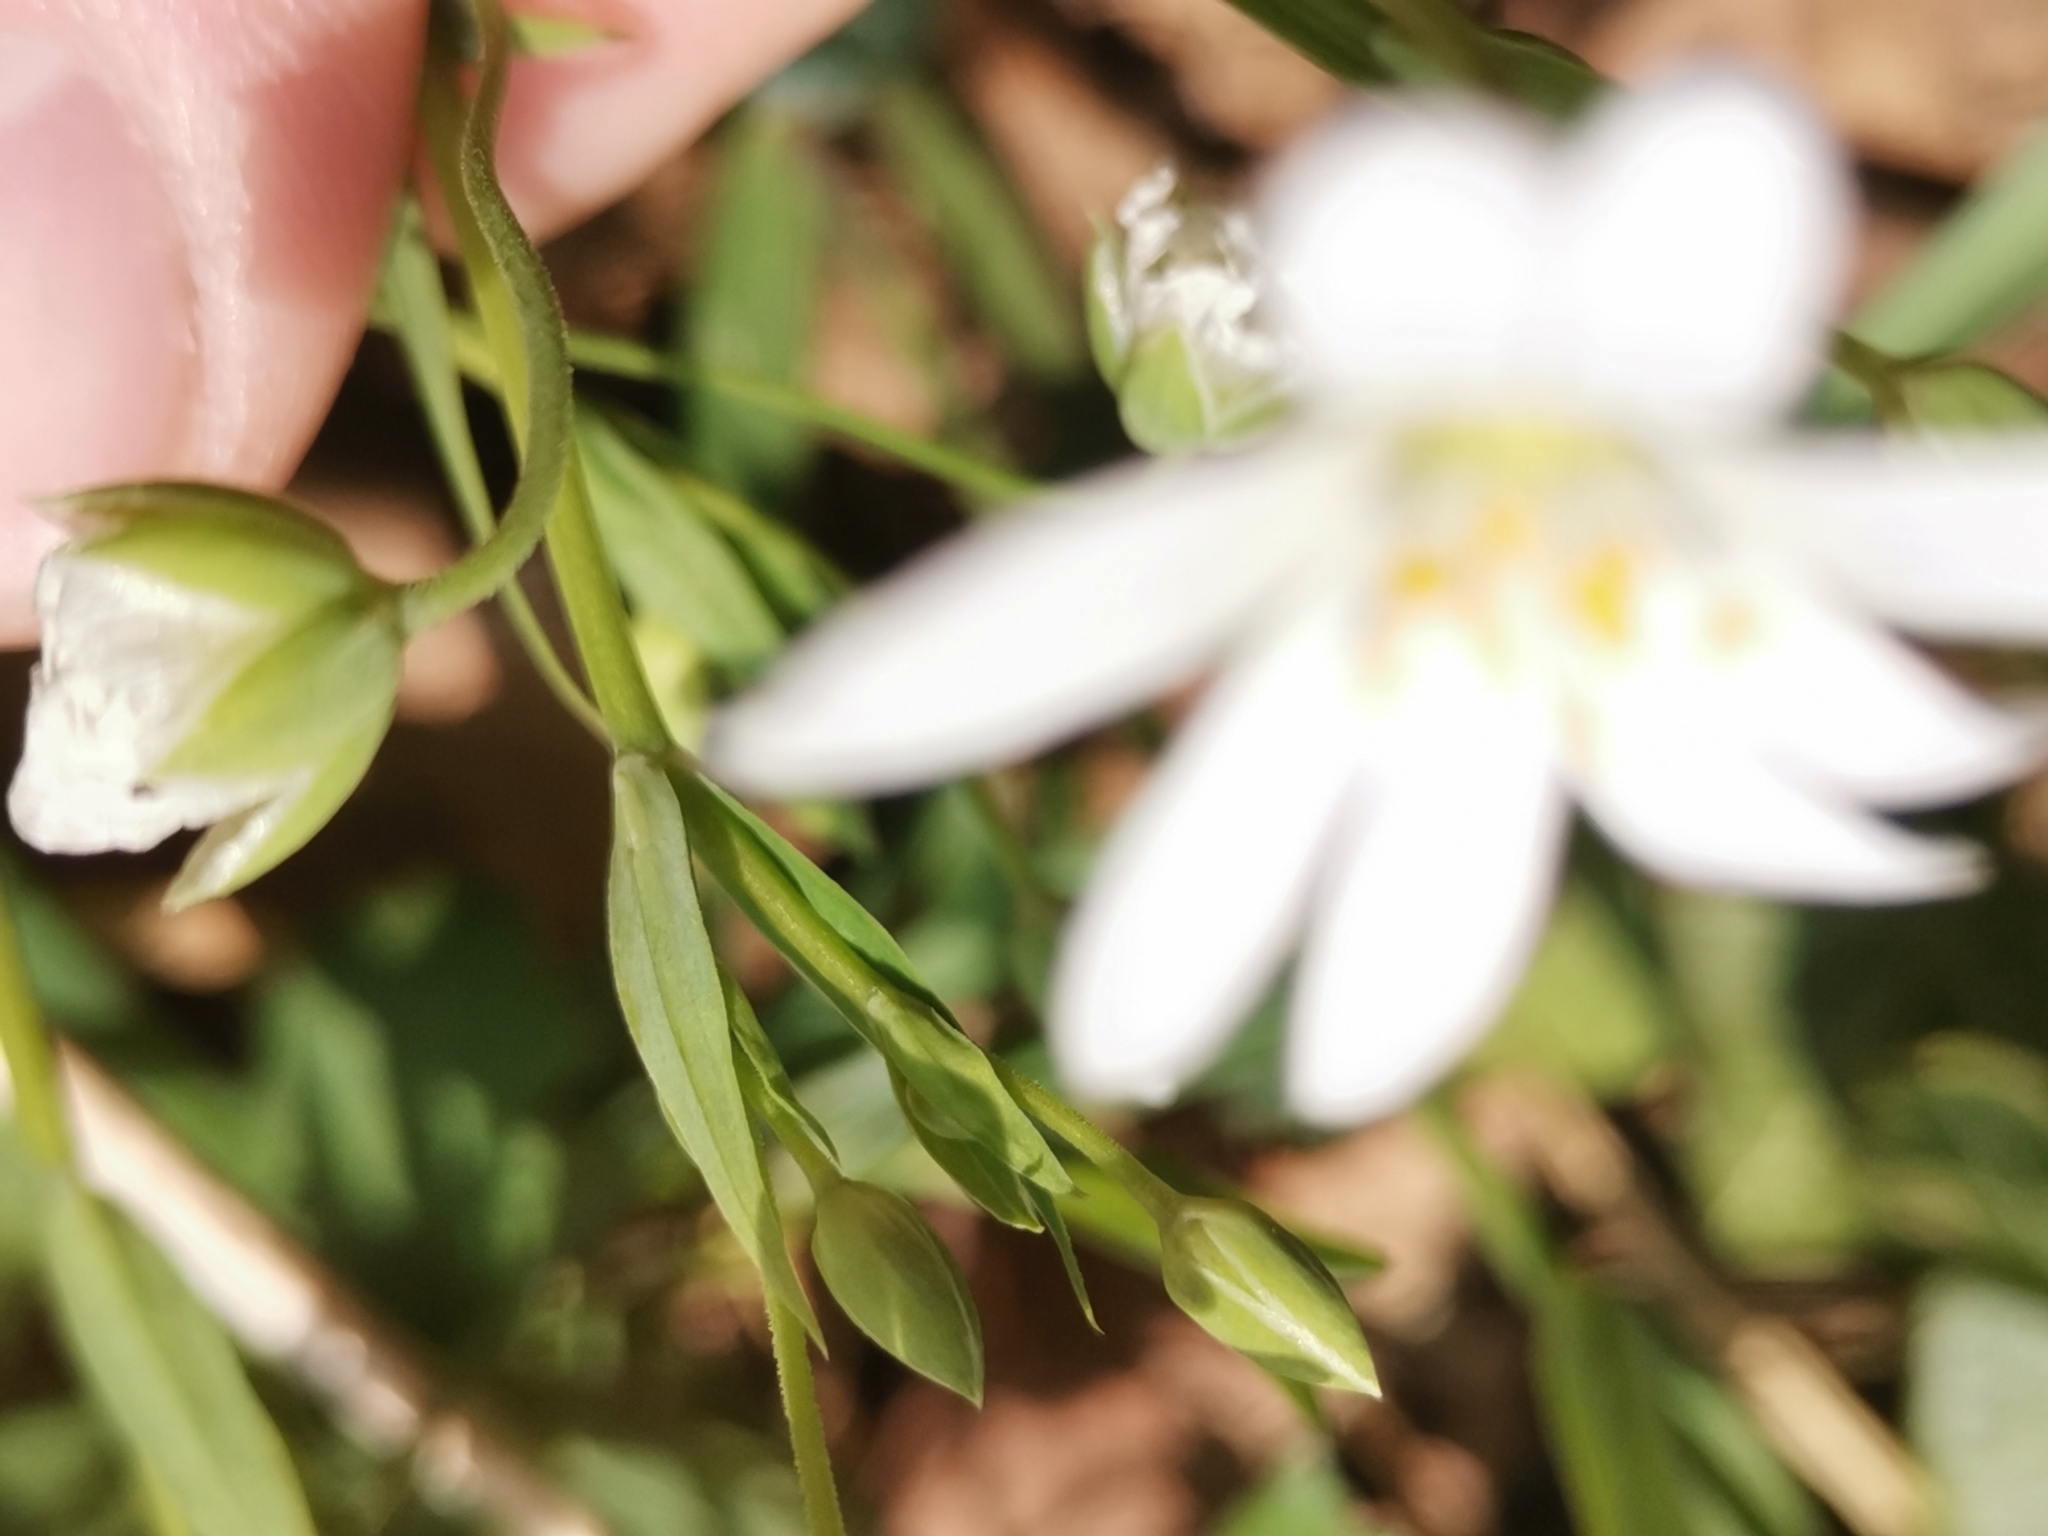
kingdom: Plantae
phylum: Tracheophyta
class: Magnoliopsida
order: Caryophyllales
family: Caryophyllaceae
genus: Rabelera
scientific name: Rabelera holostea
